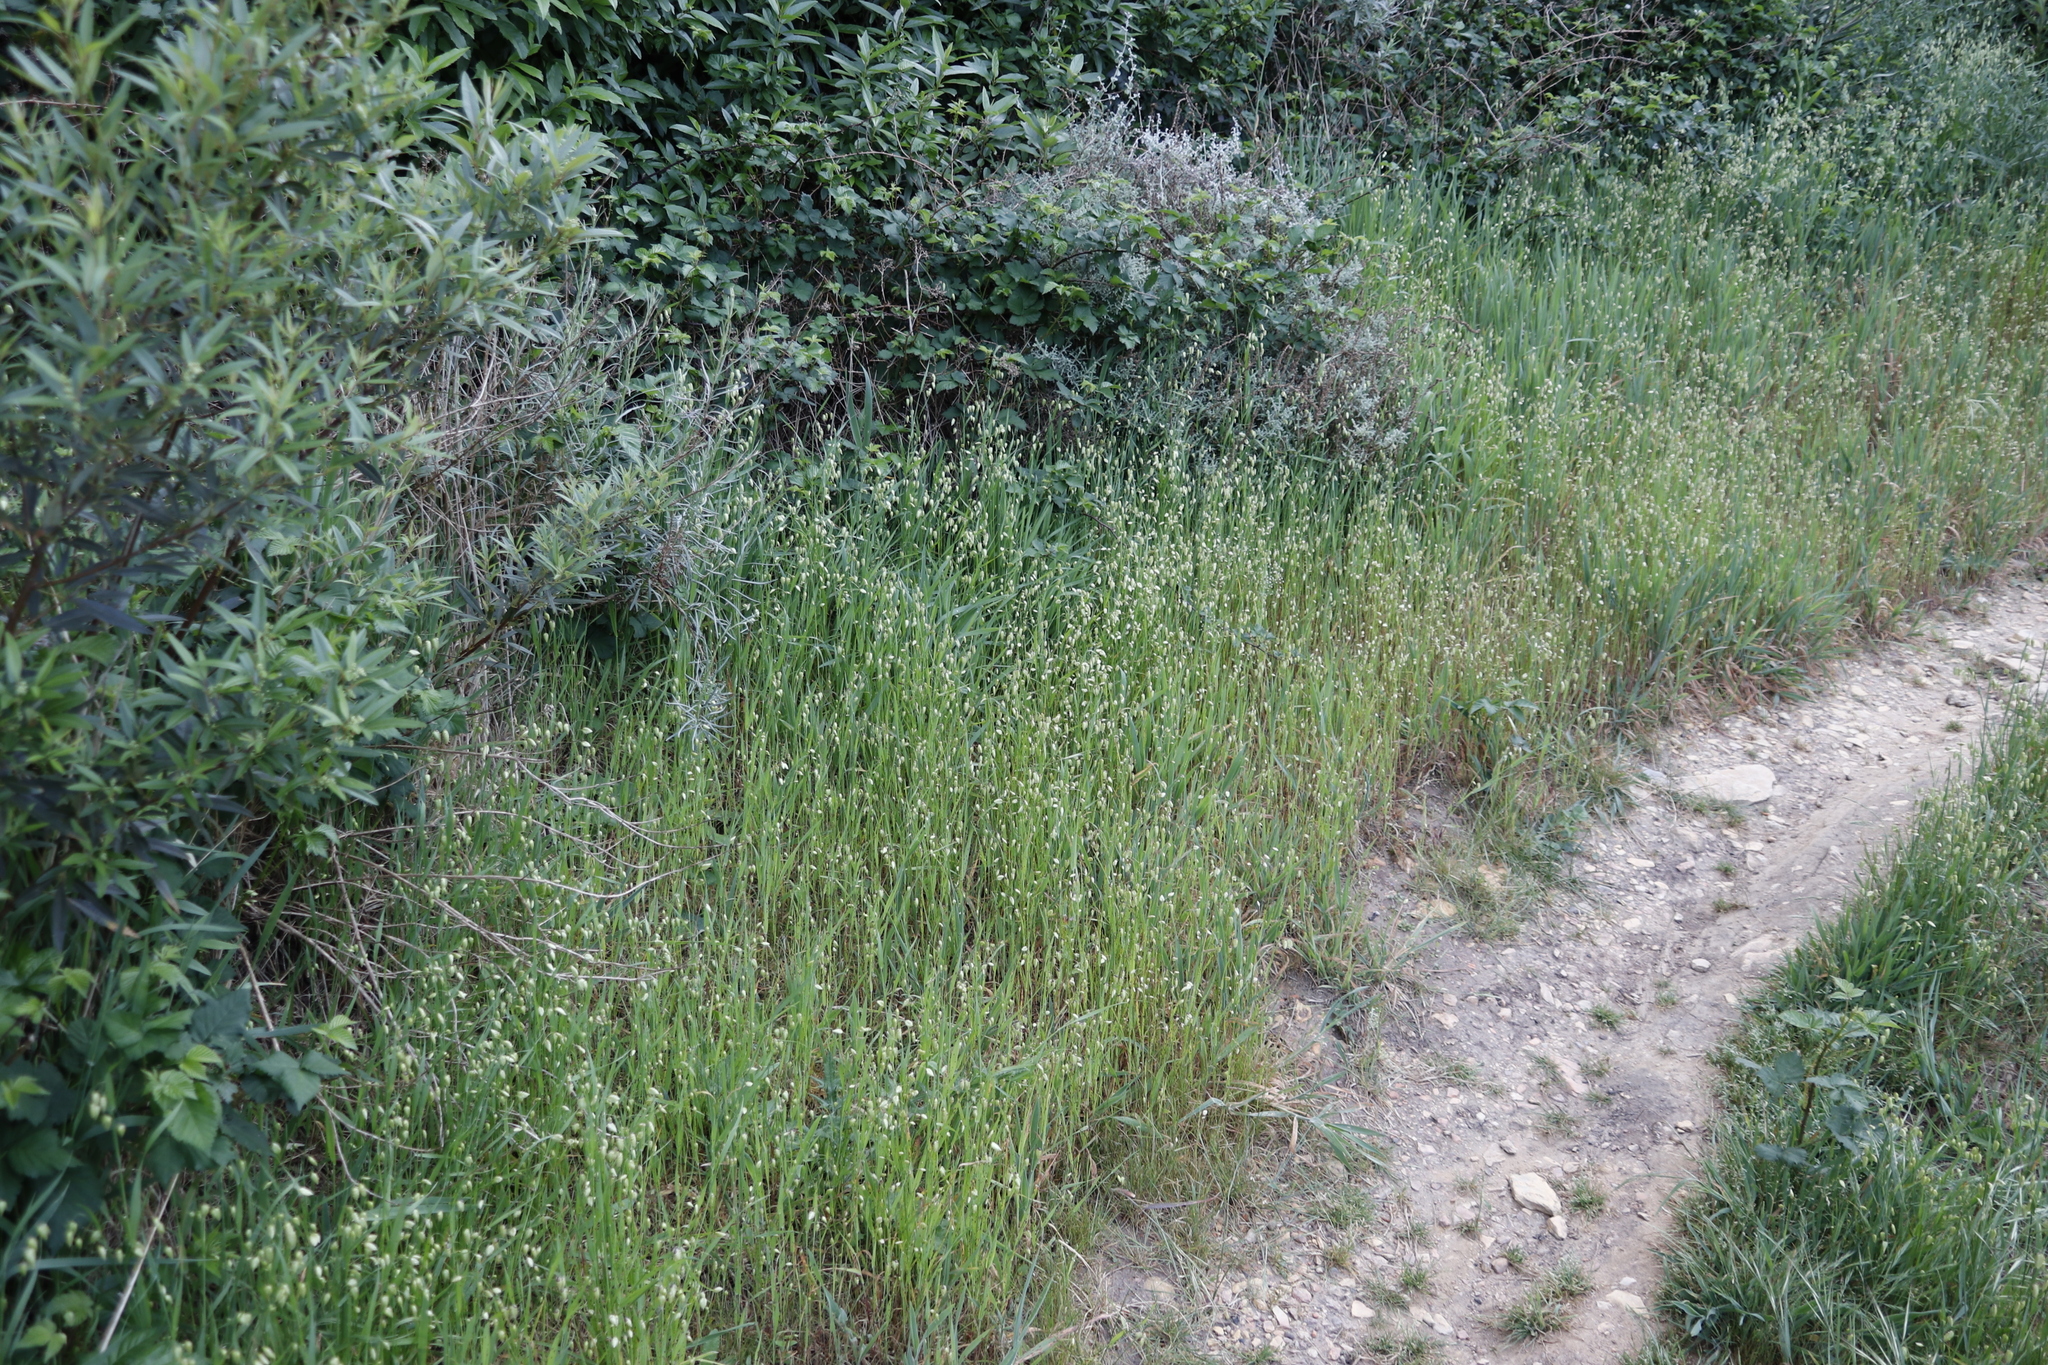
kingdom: Plantae
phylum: Tracheophyta
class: Liliopsida
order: Poales
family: Poaceae
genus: Briza
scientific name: Briza maxima
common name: Big quakinggrass
